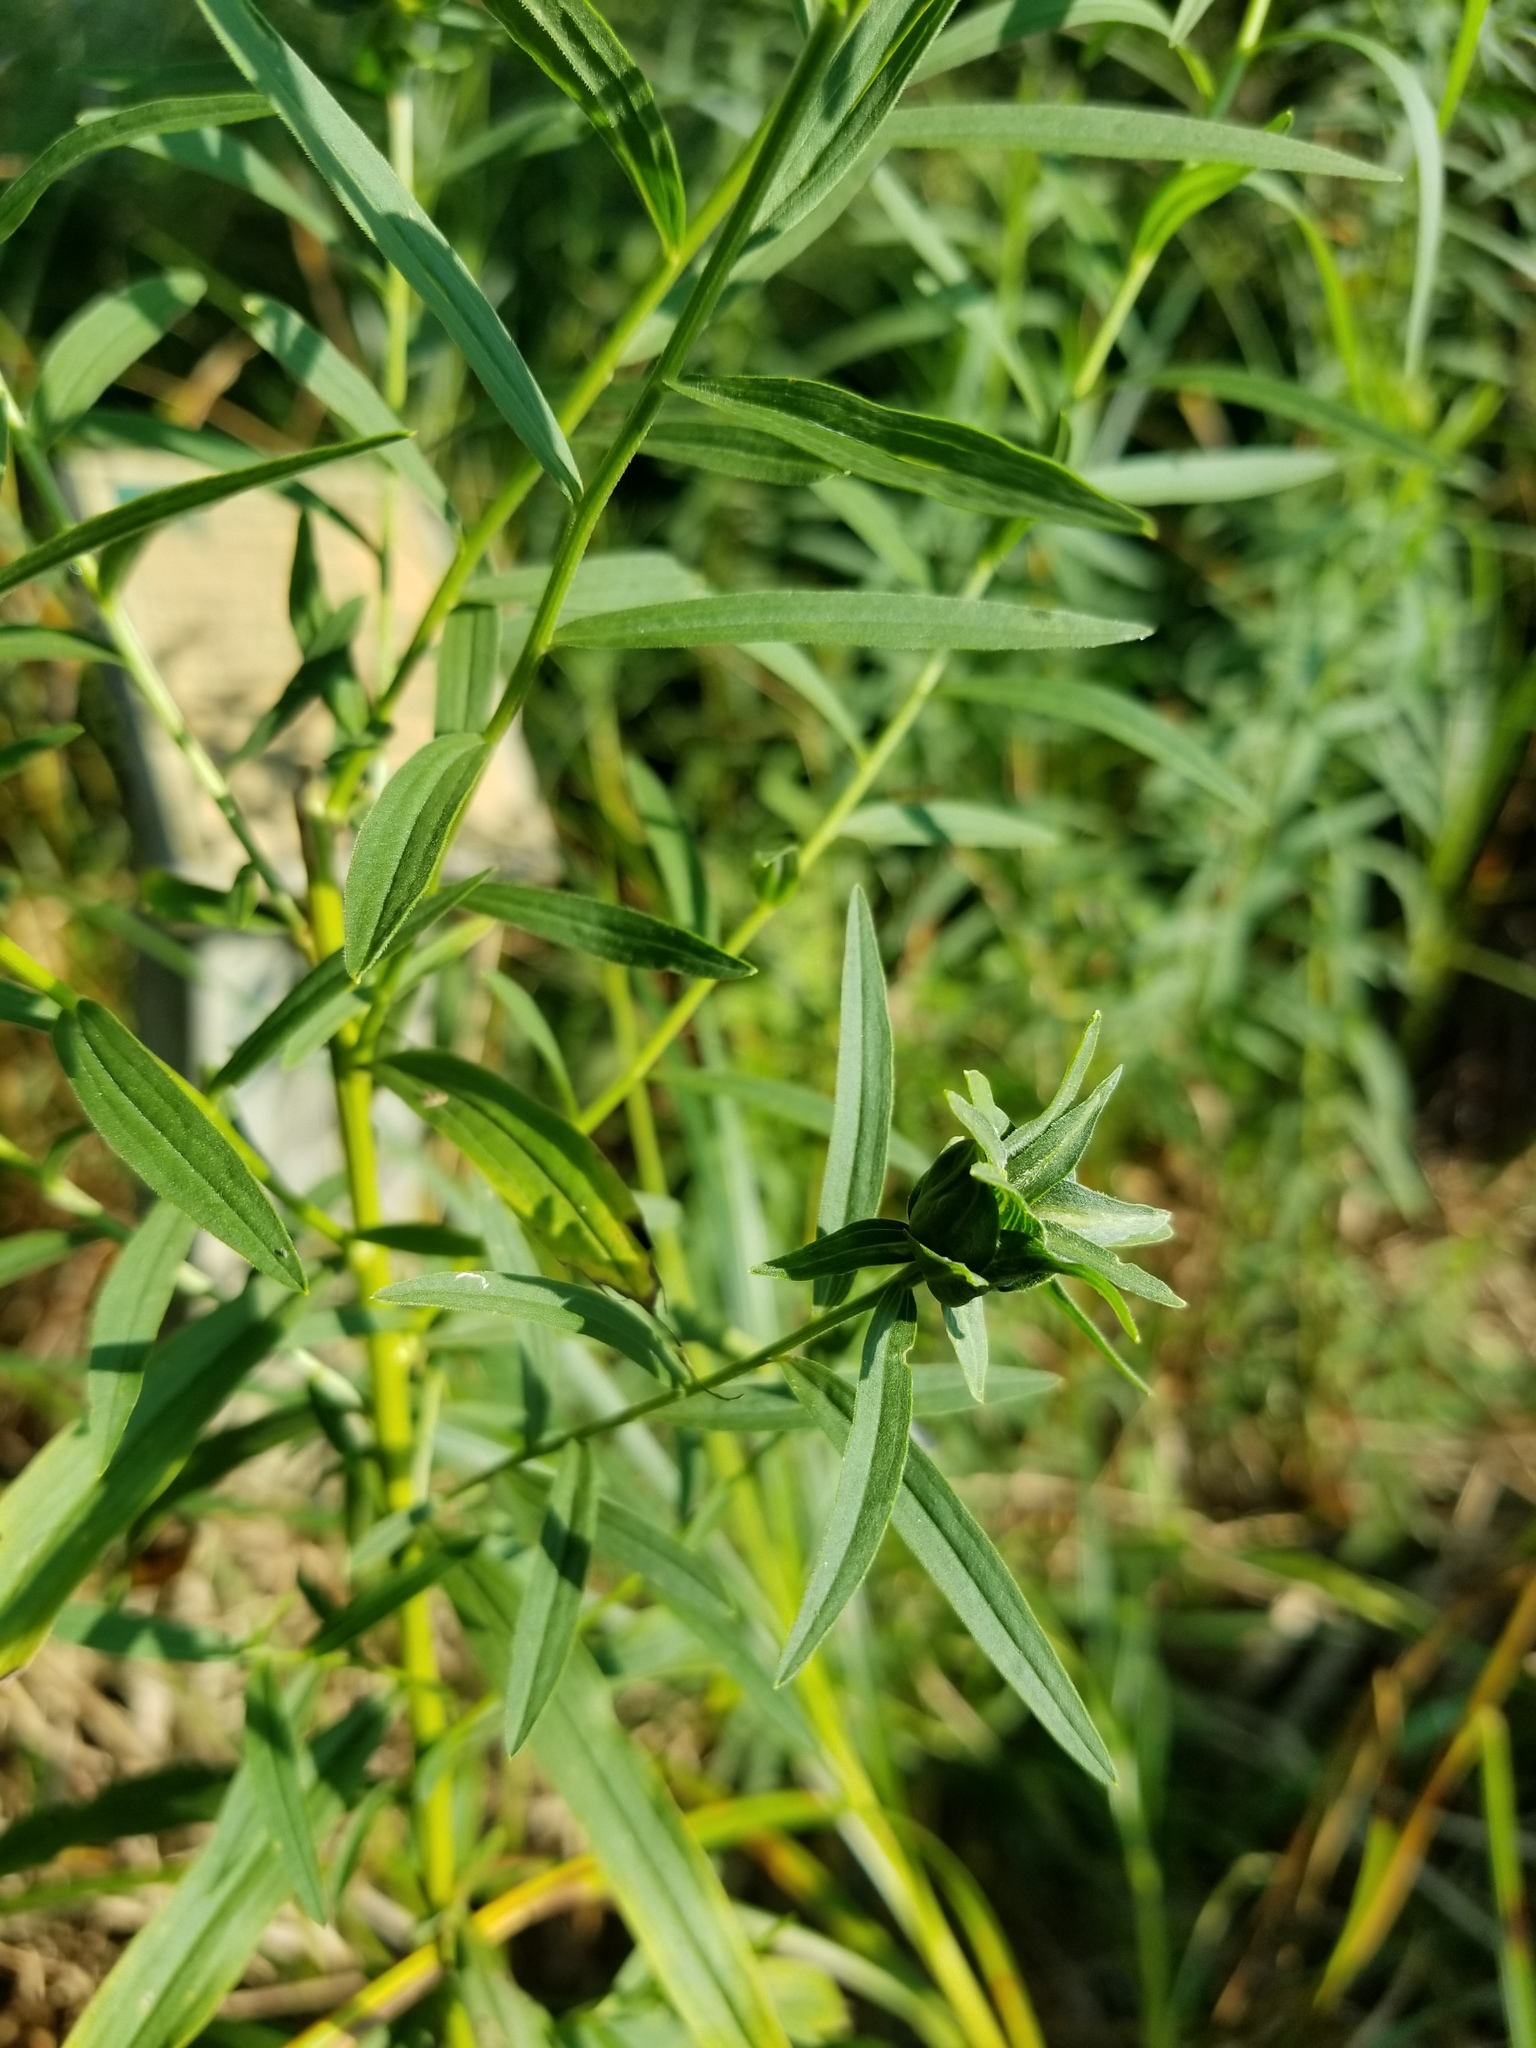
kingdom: Animalia
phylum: Arthropoda
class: Insecta
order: Diptera
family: Cecidomyiidae
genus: Asphondylia
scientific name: Asphondylia pseudorosa
